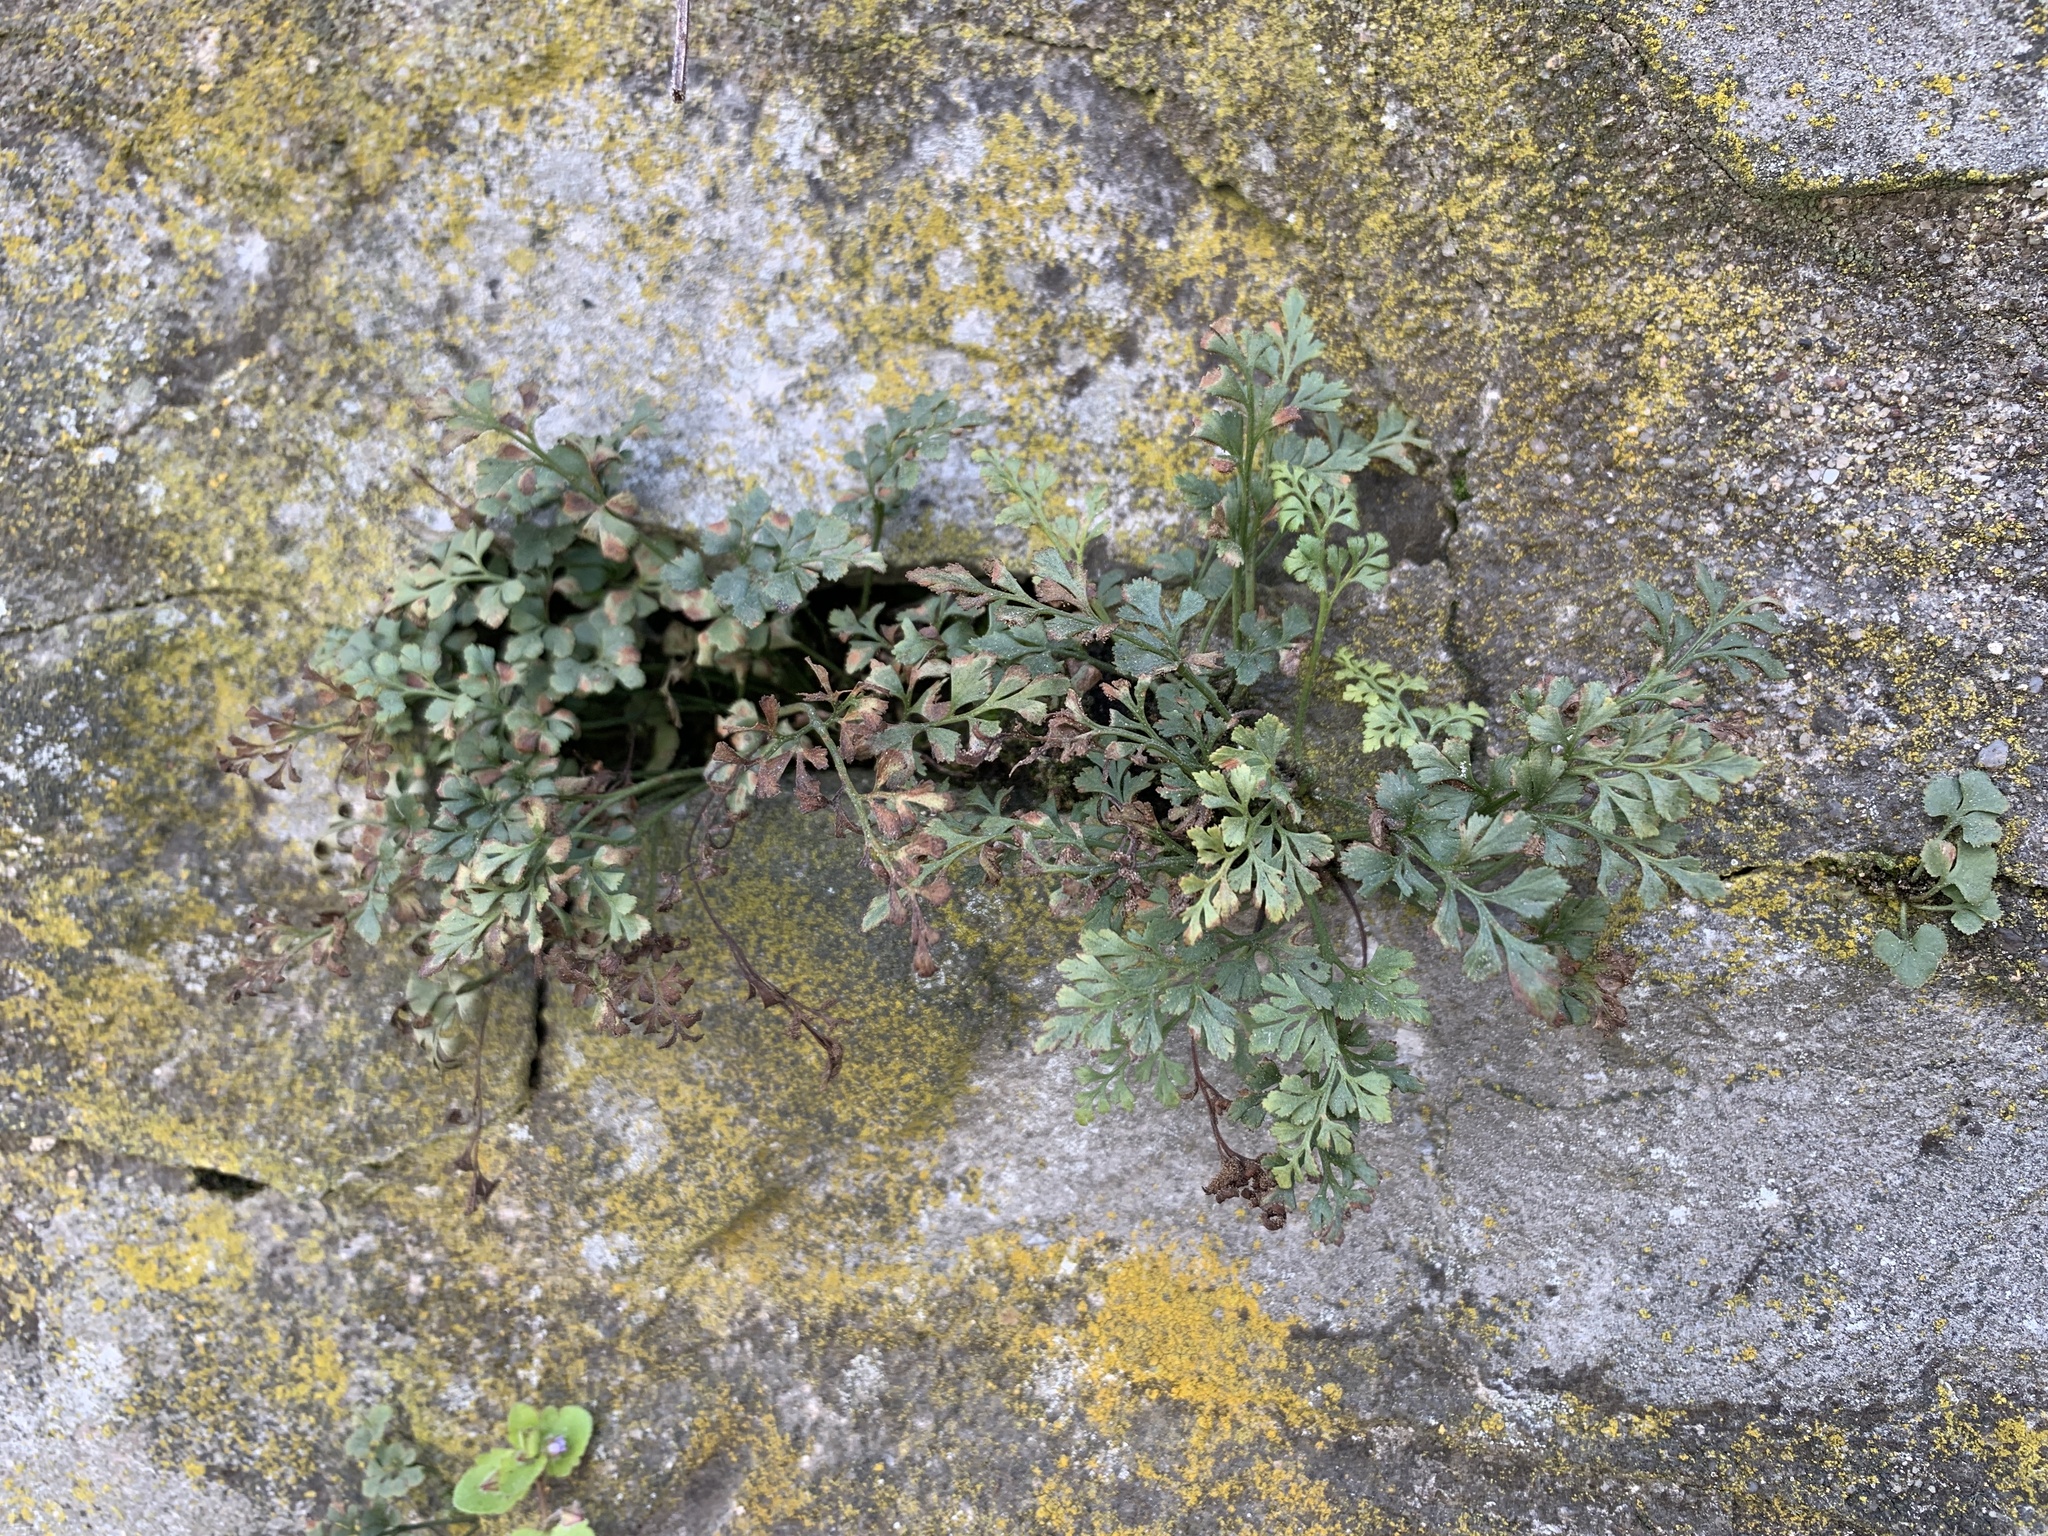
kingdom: Plantae
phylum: Tracheophyta
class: Polypodiopsida
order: Polypodiales
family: Aspleniaceae
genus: Asplenium
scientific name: Asplenium ruta-muraria
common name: Wall-rue
